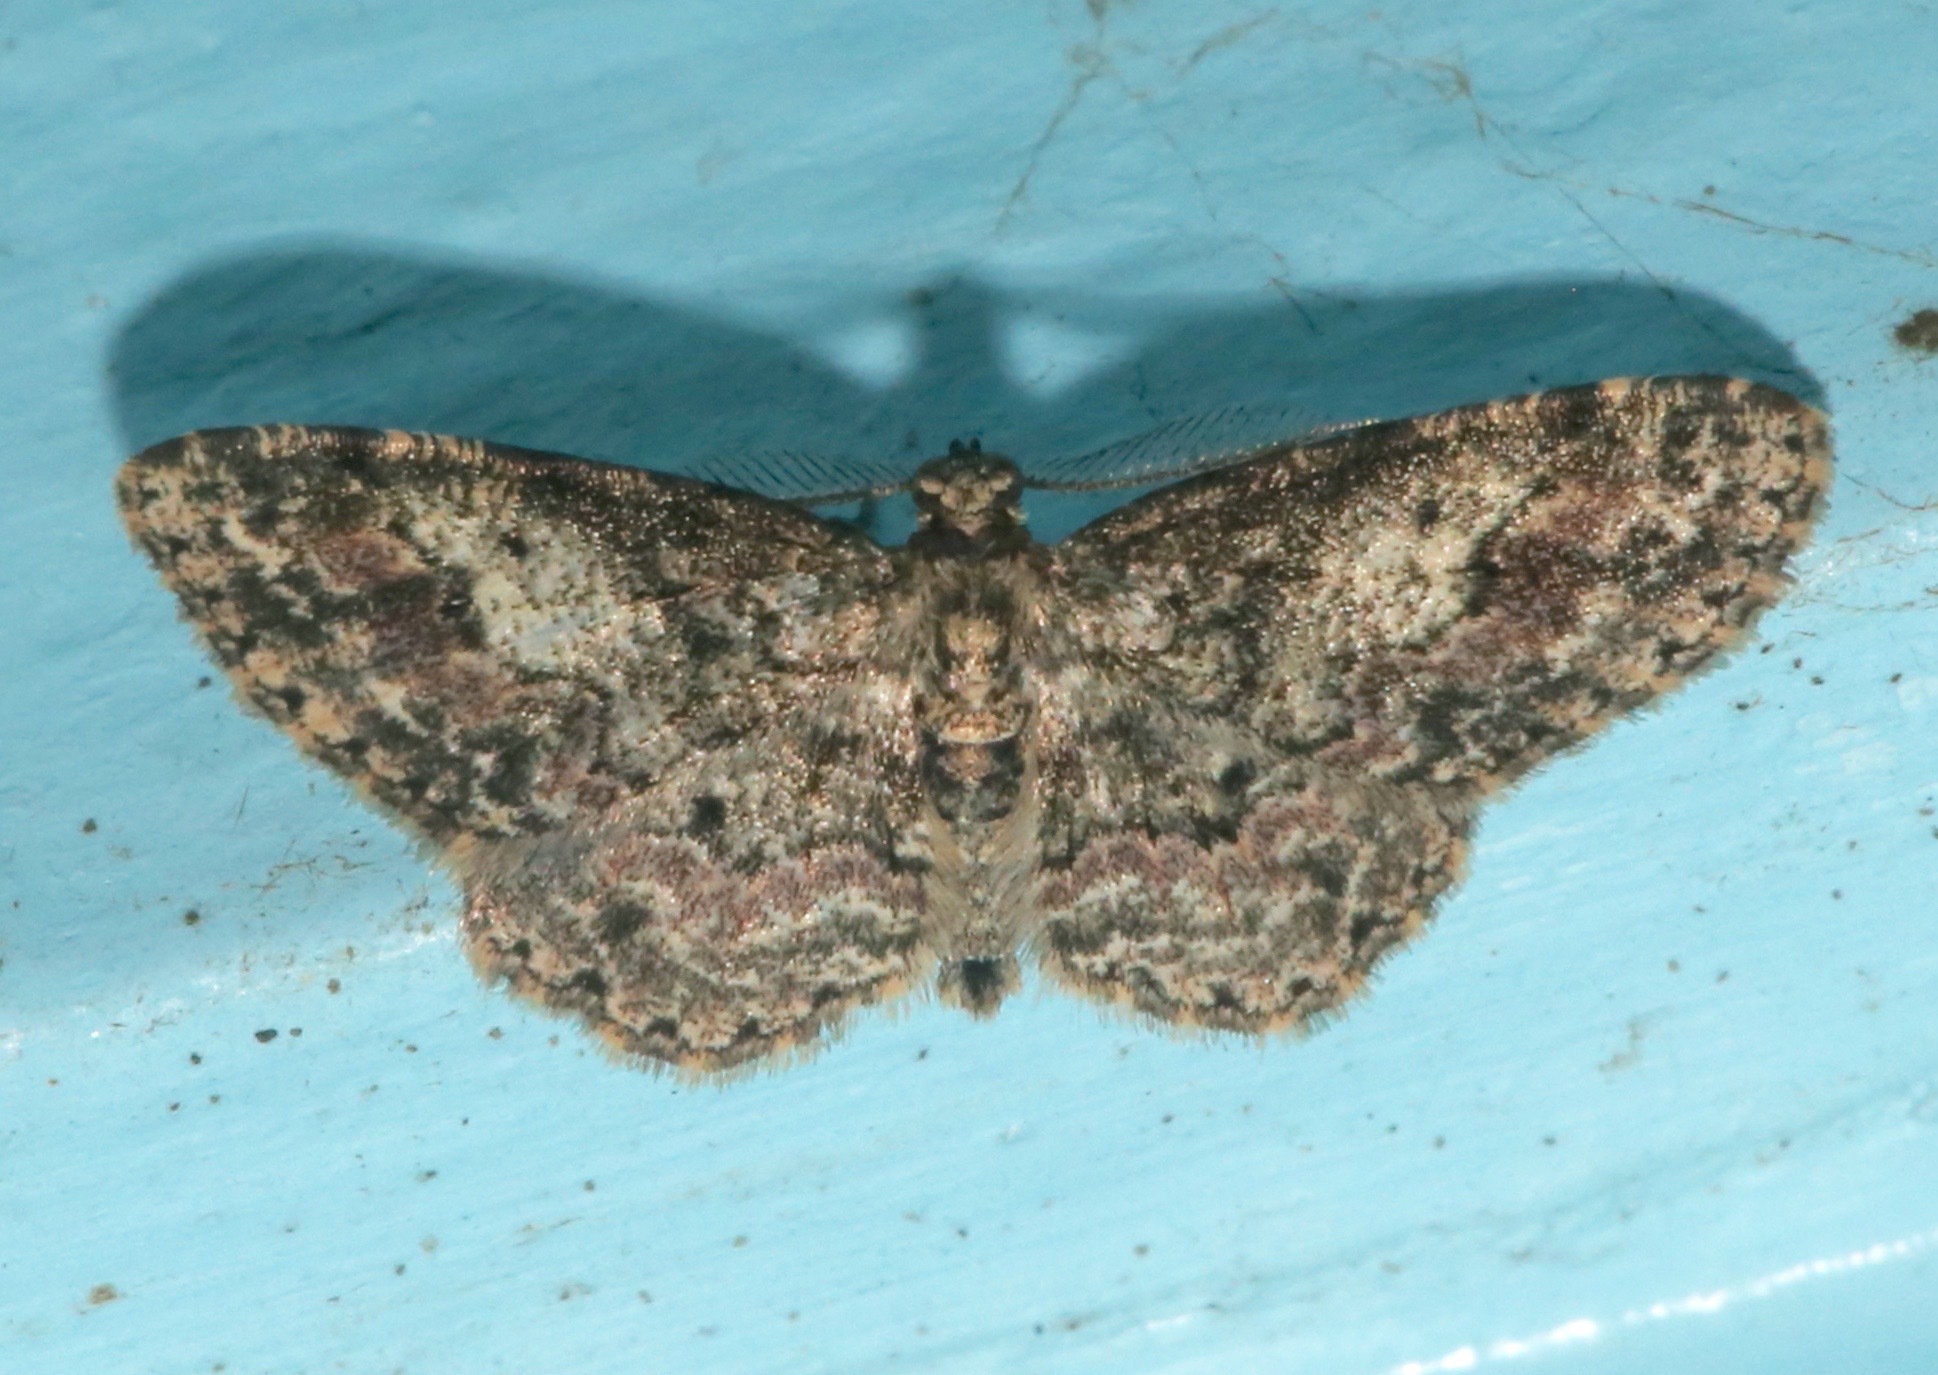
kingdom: Animalia
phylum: Arthropoda
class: Insecta
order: Lepidoptera
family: Geometridae
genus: Glenoides
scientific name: Glenoides texanaria
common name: Texas gray
